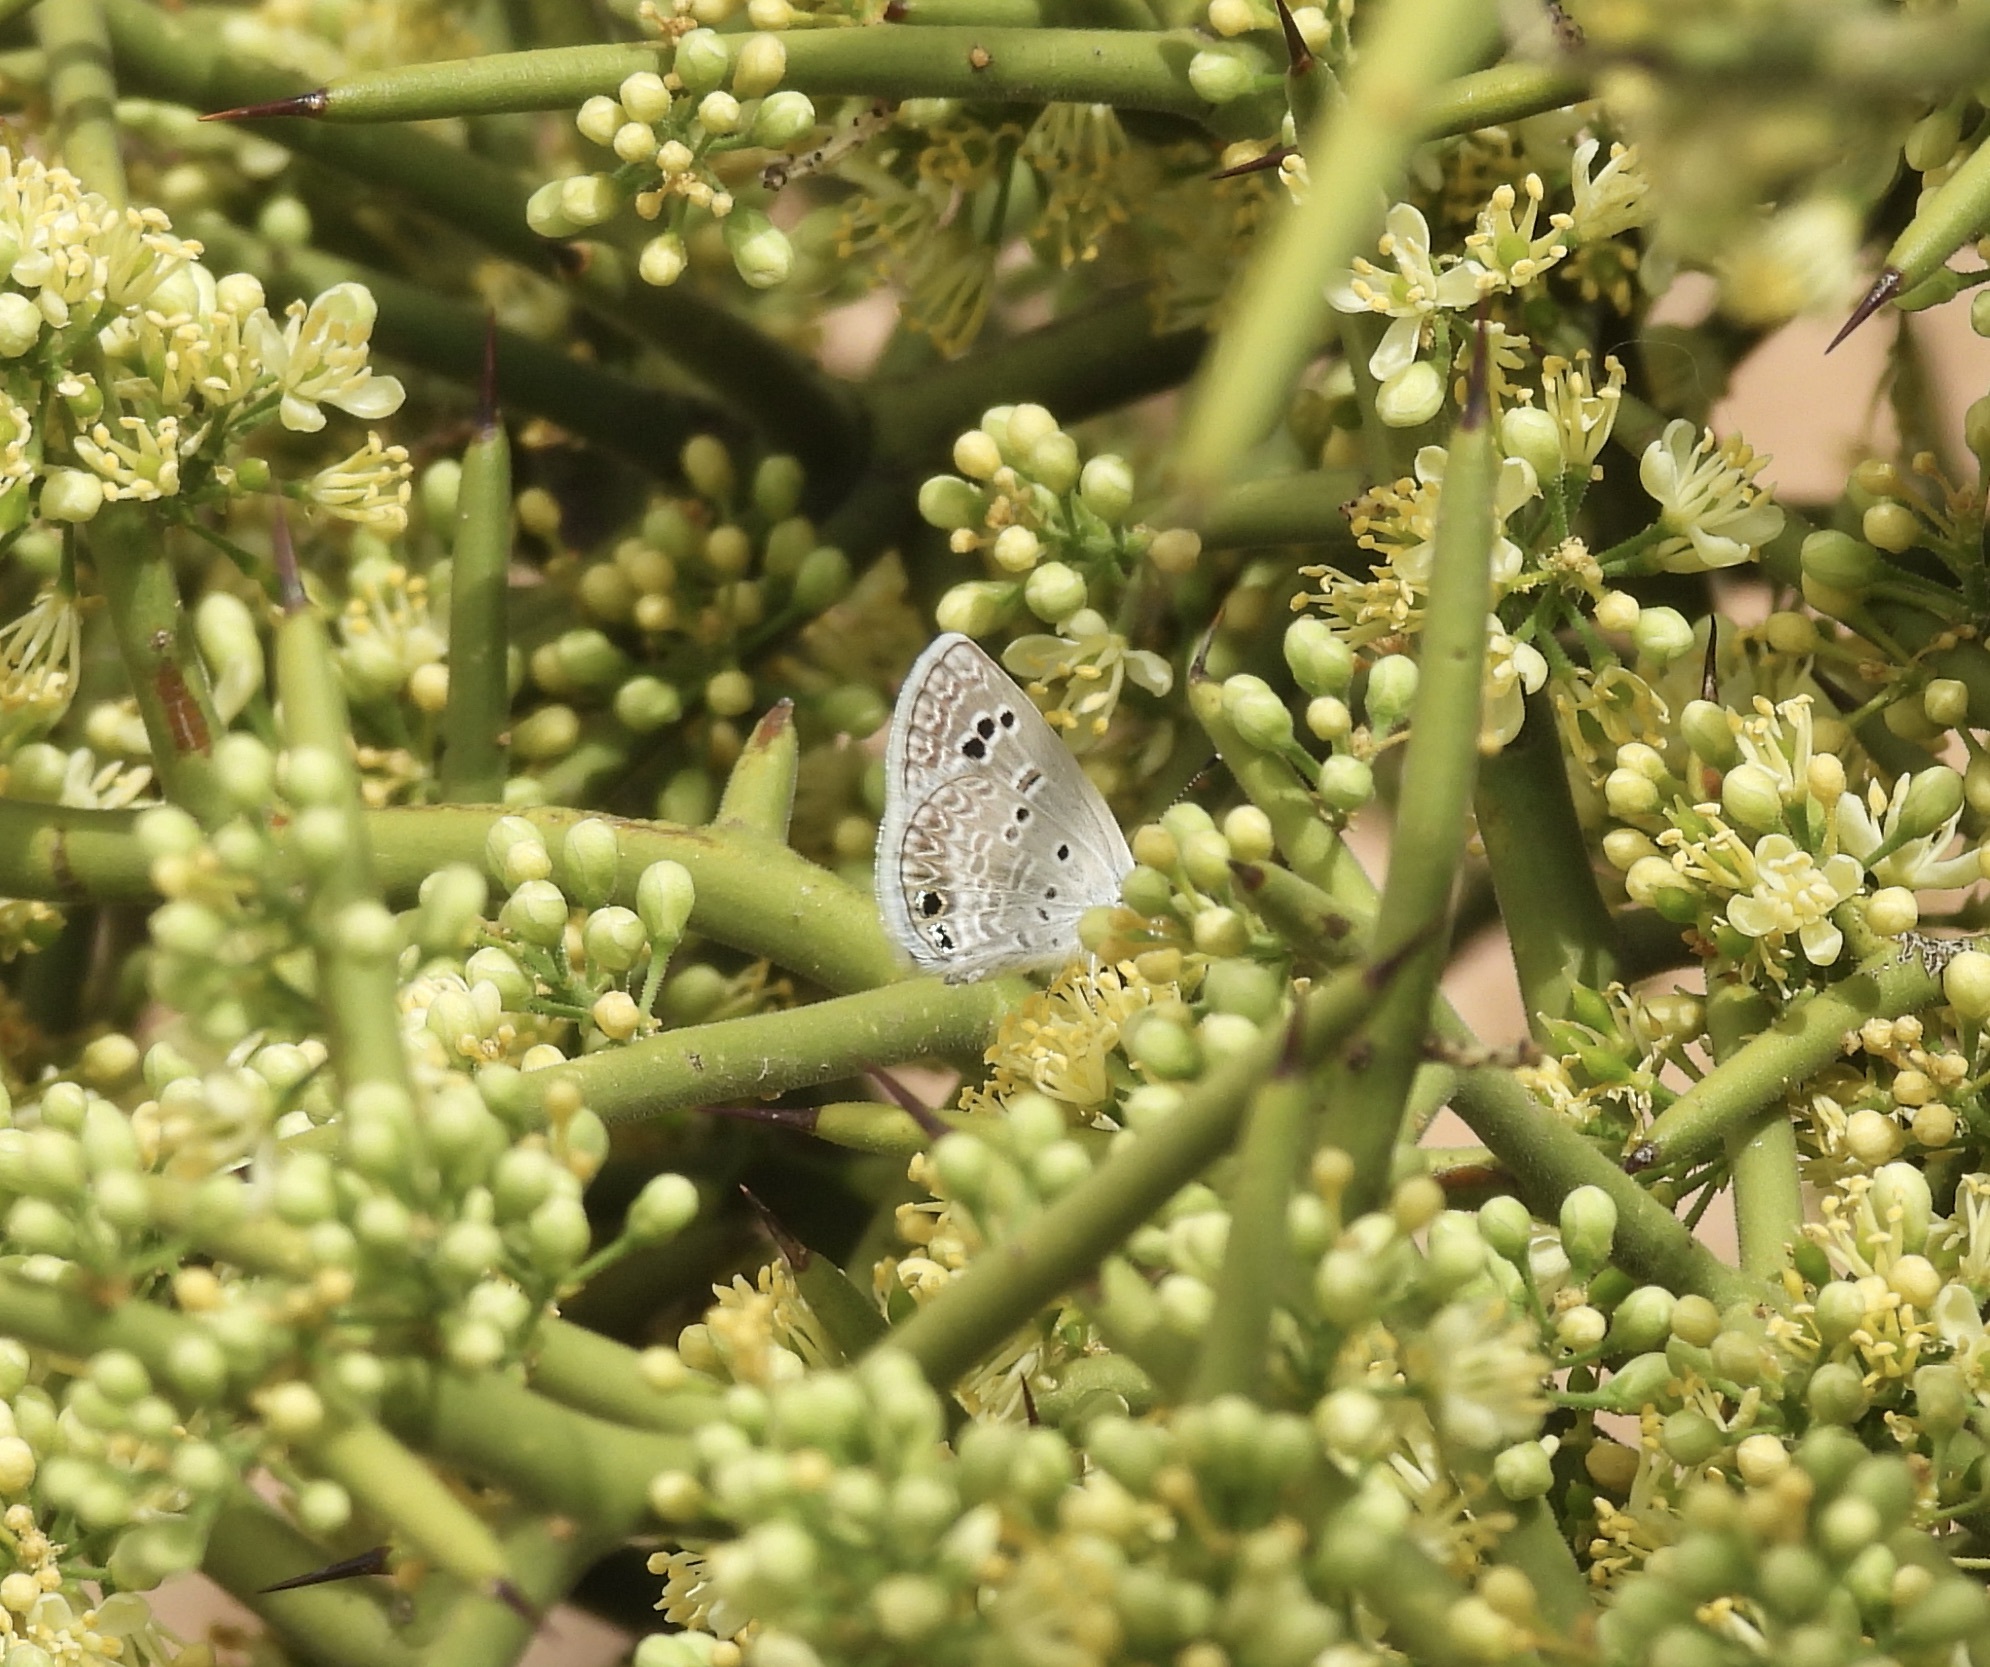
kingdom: Animalia
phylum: Arthropoda
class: Insecta
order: Lepidoptera
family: Lycaenidae
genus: Echinargus
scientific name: Echinargus isola
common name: Reakirt's blue
